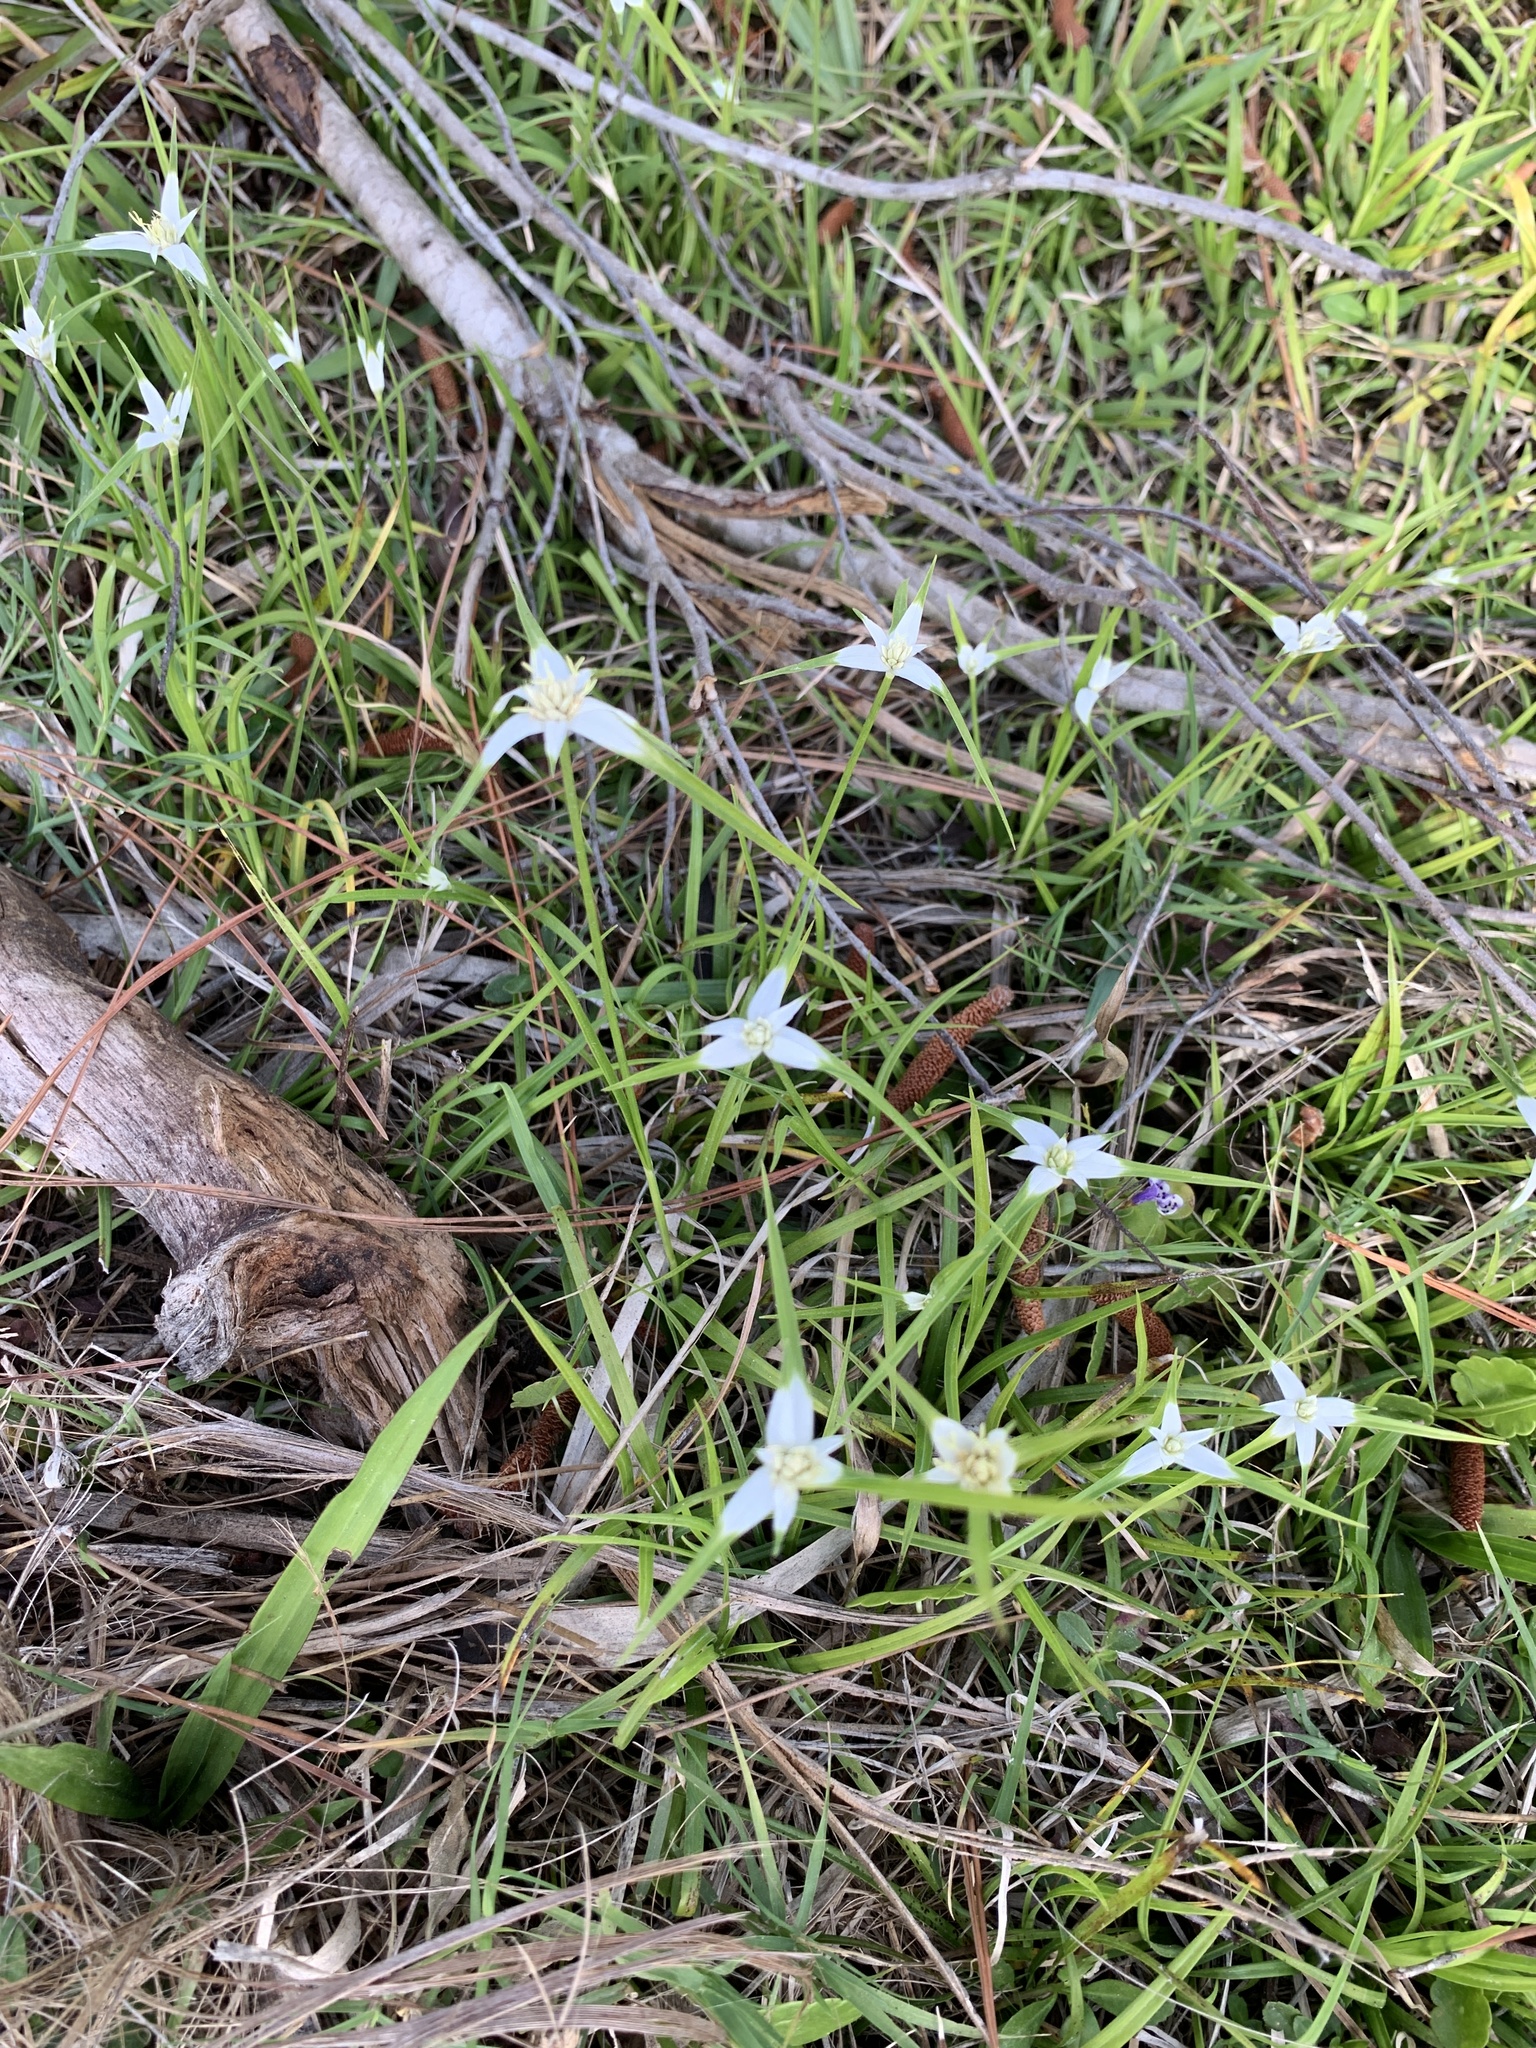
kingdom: Plantae
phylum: Tracheophyta
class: Liliopsida
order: Poales
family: Cyperaceae
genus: Rhynchospora
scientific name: Rhynchospora colorata
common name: Star sedge
